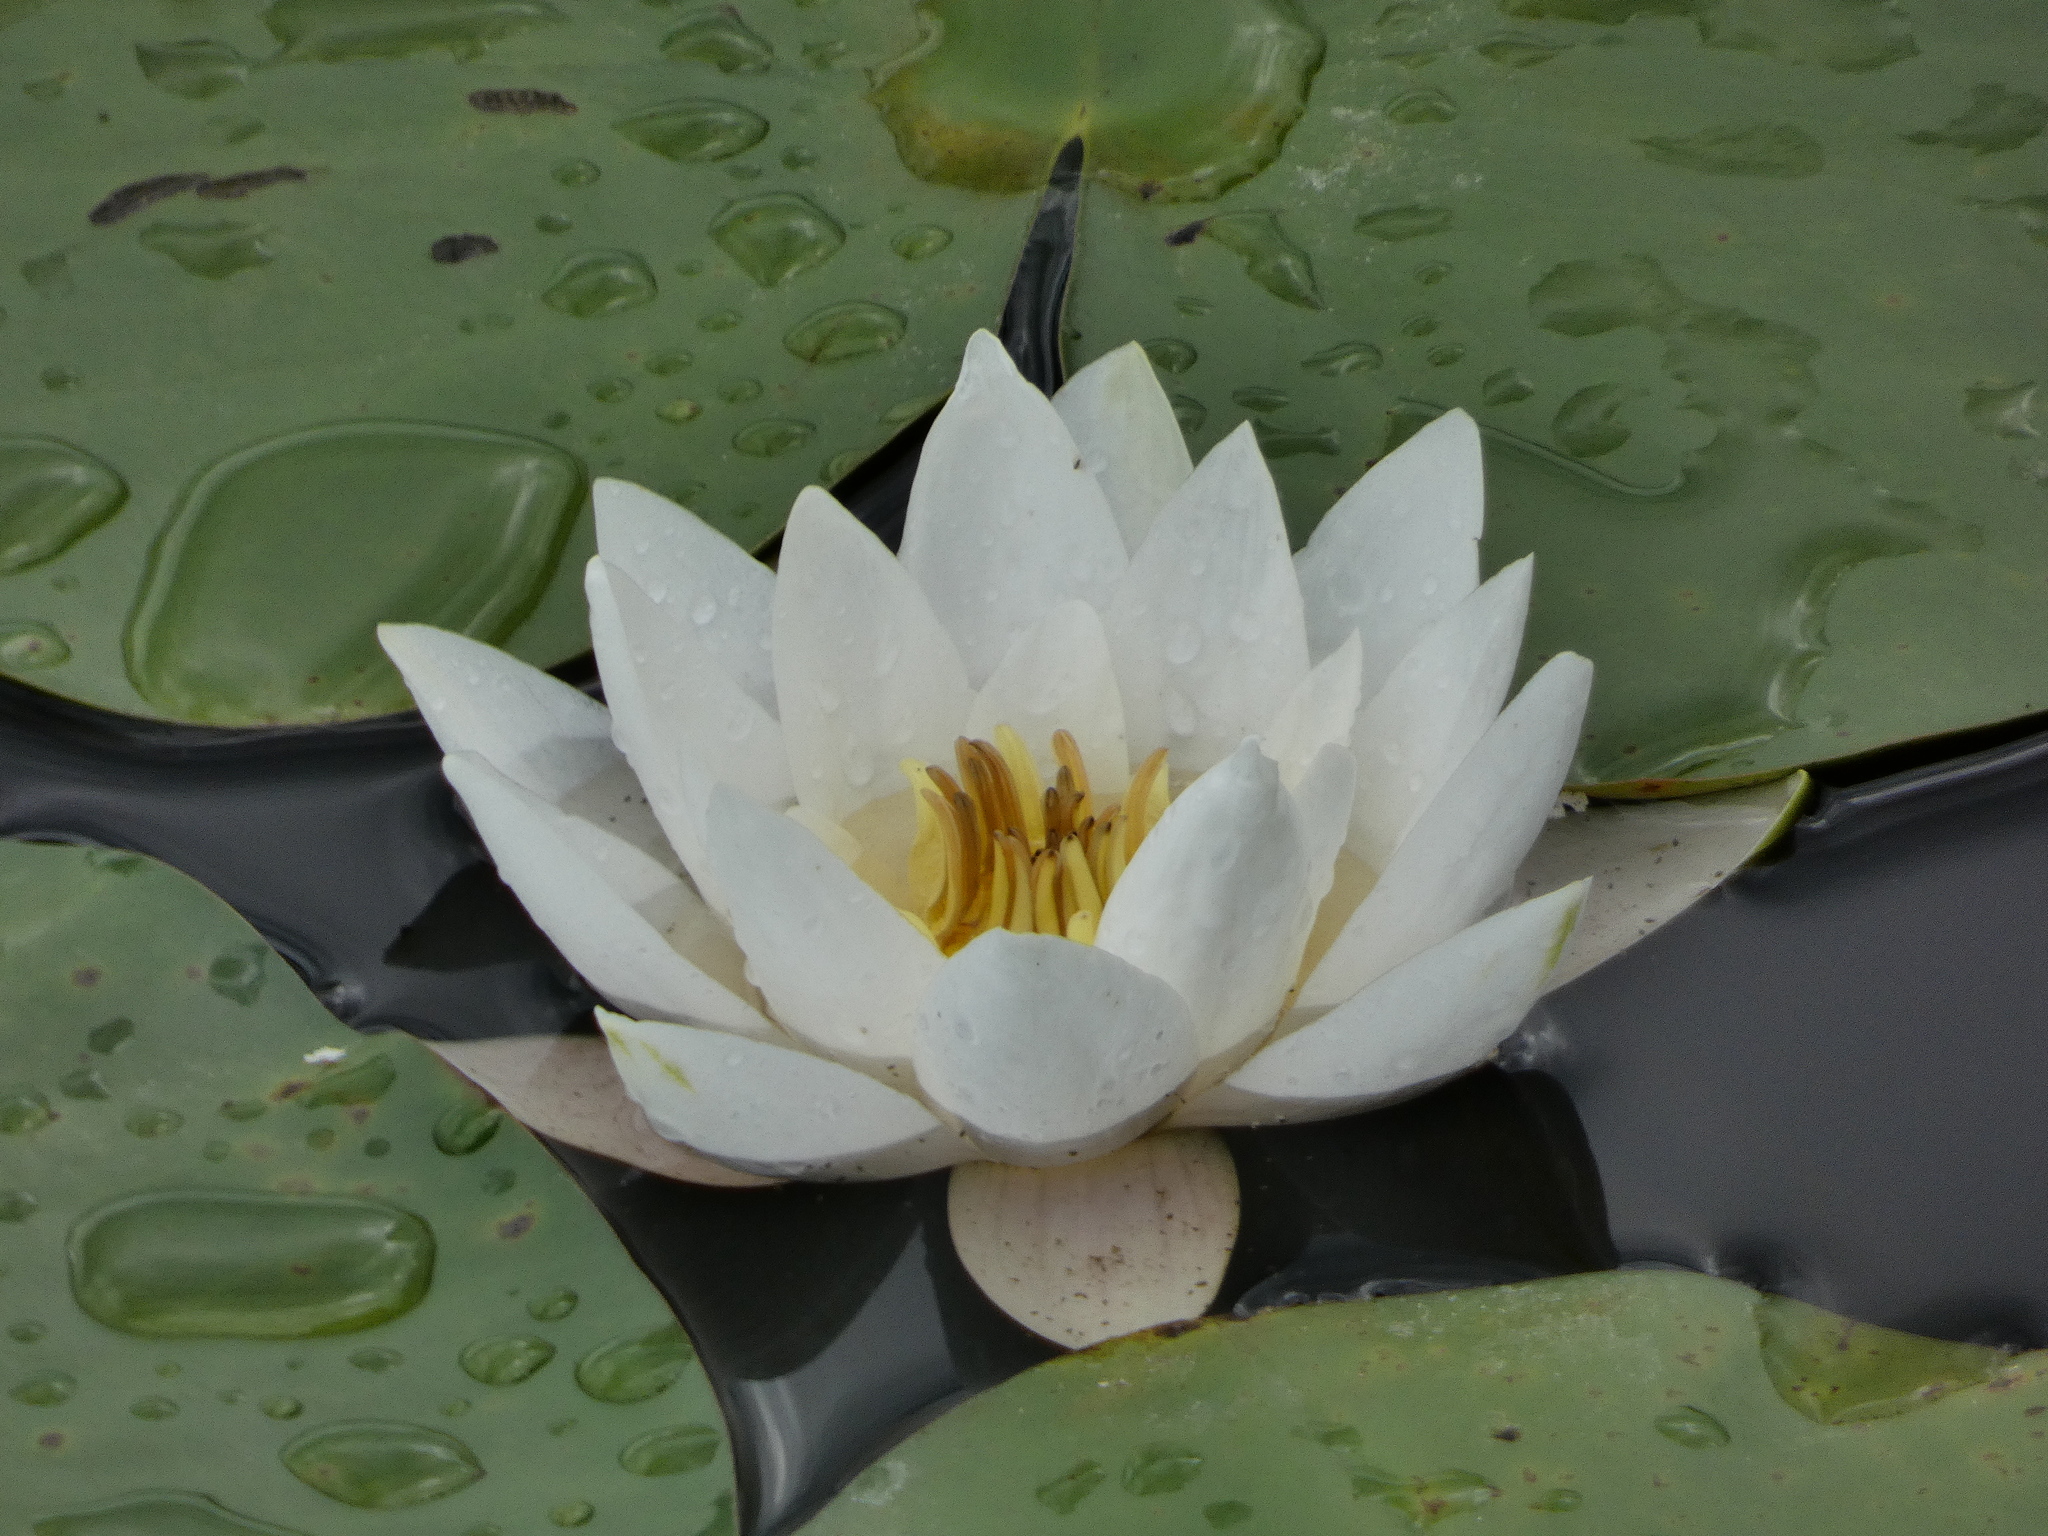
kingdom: Plantae
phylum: Tracheophyta
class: Magnoliopsida
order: Nymphaeales
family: Nymphaeaceae
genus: Nymphaea
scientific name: Nymphaea alba
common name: White water-lily
